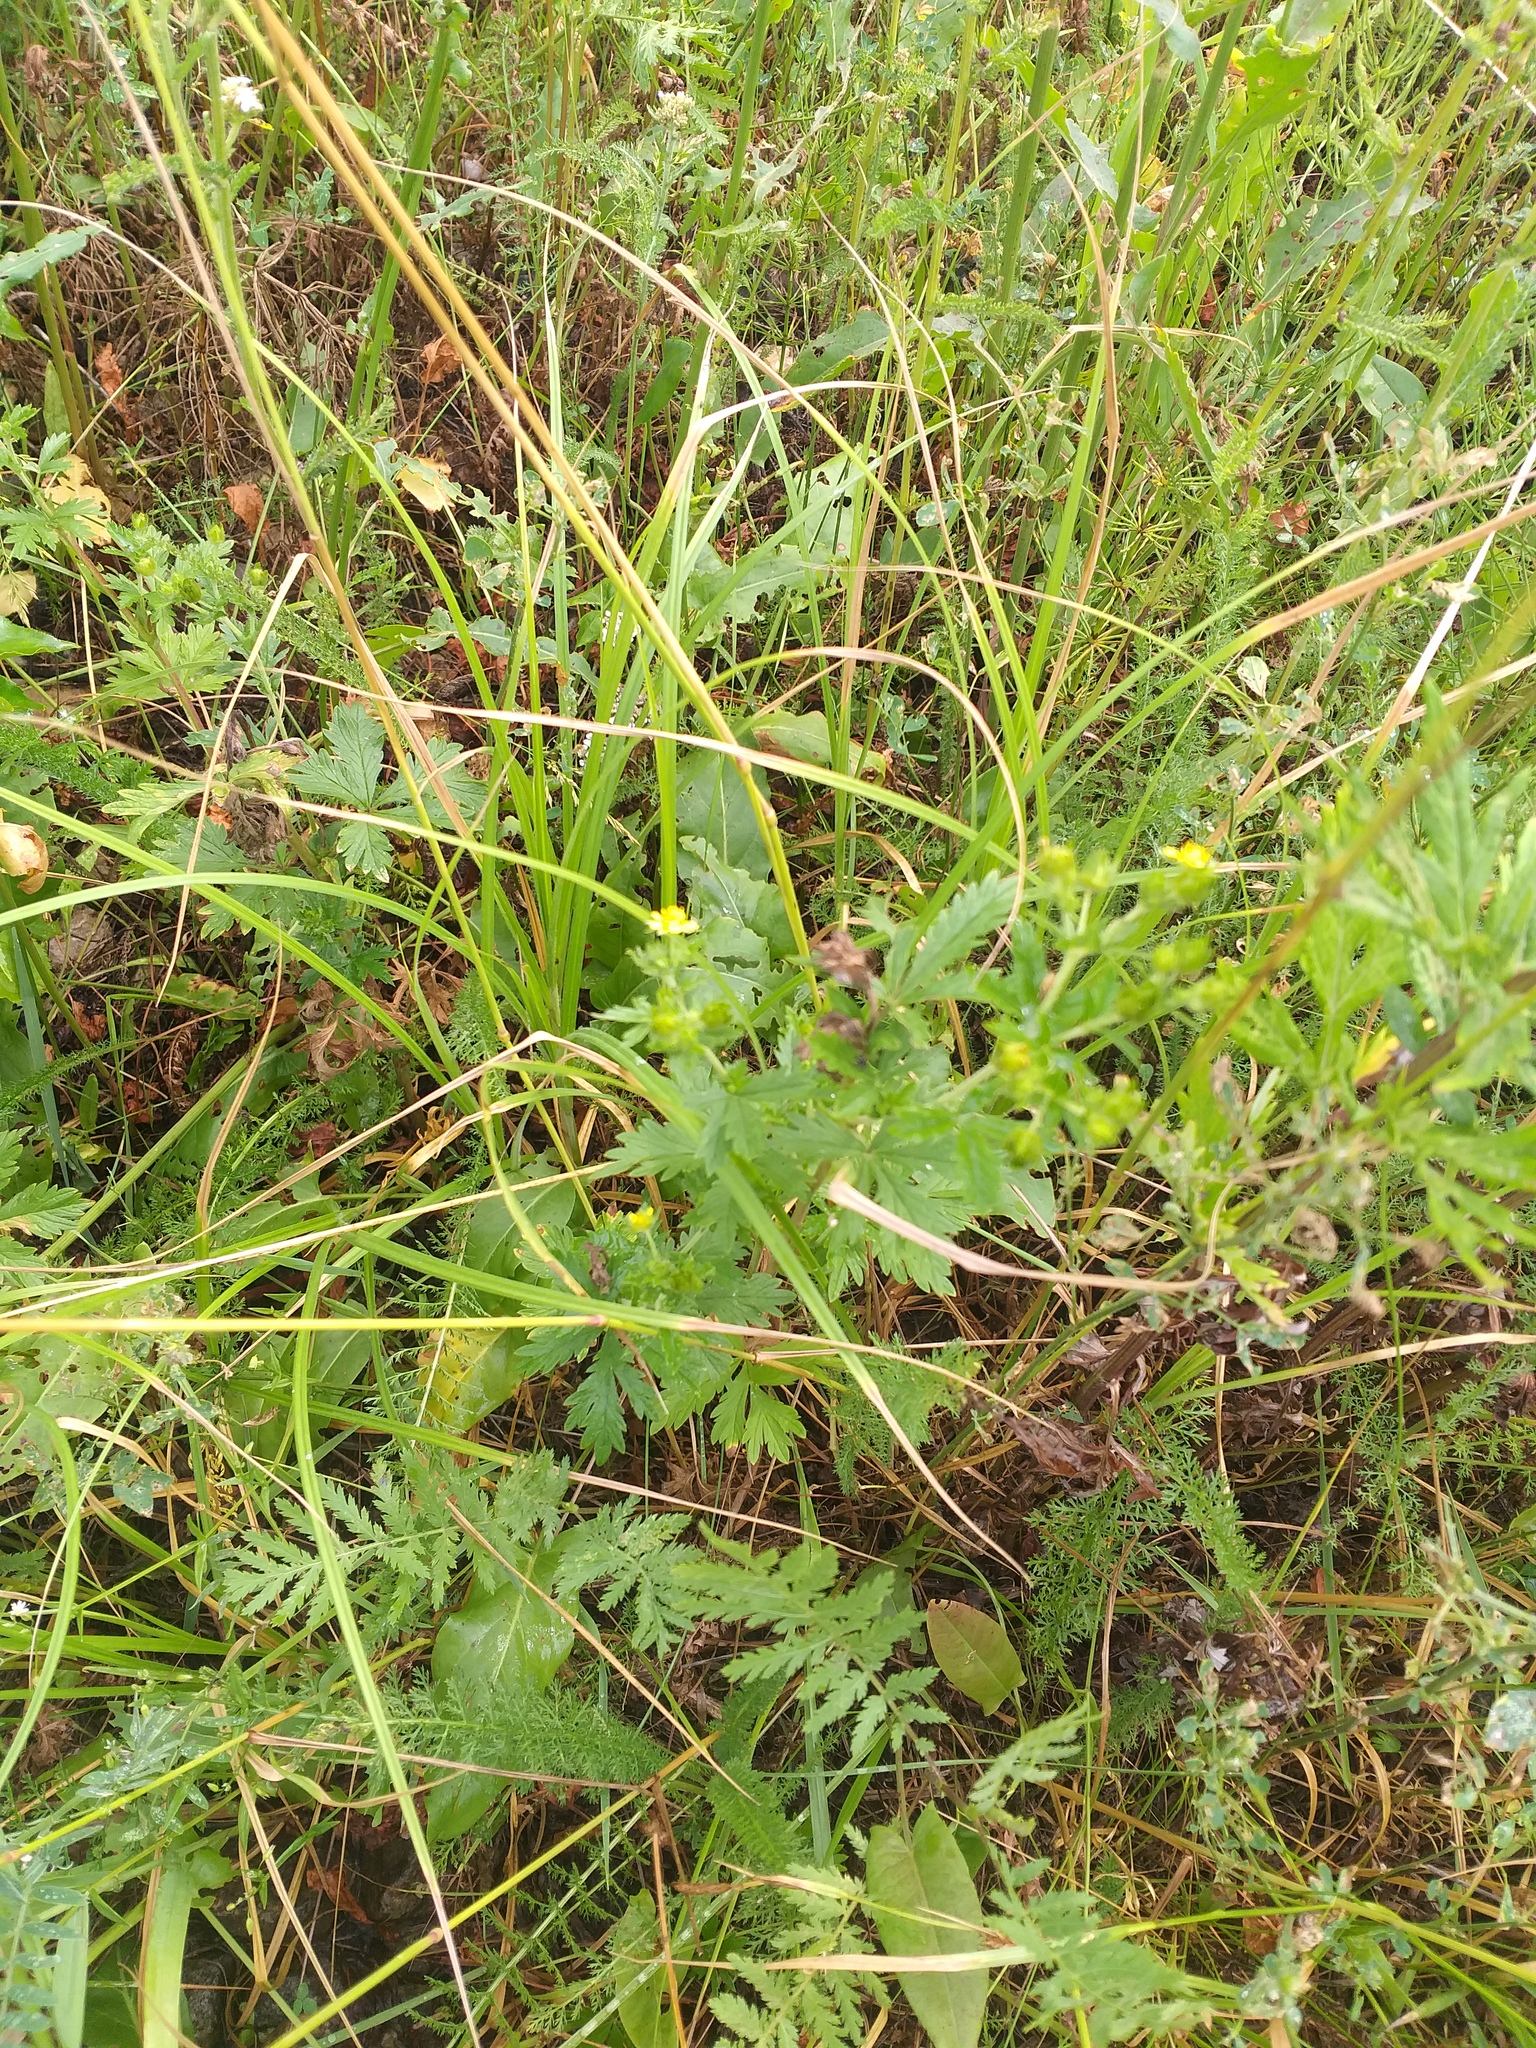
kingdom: Plantae
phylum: Tracheophyta
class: Magnoliopsida
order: Rosales
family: Rosaceae
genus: Potentilla
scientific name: Potentilla intermedia
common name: Downy cinquefoil
